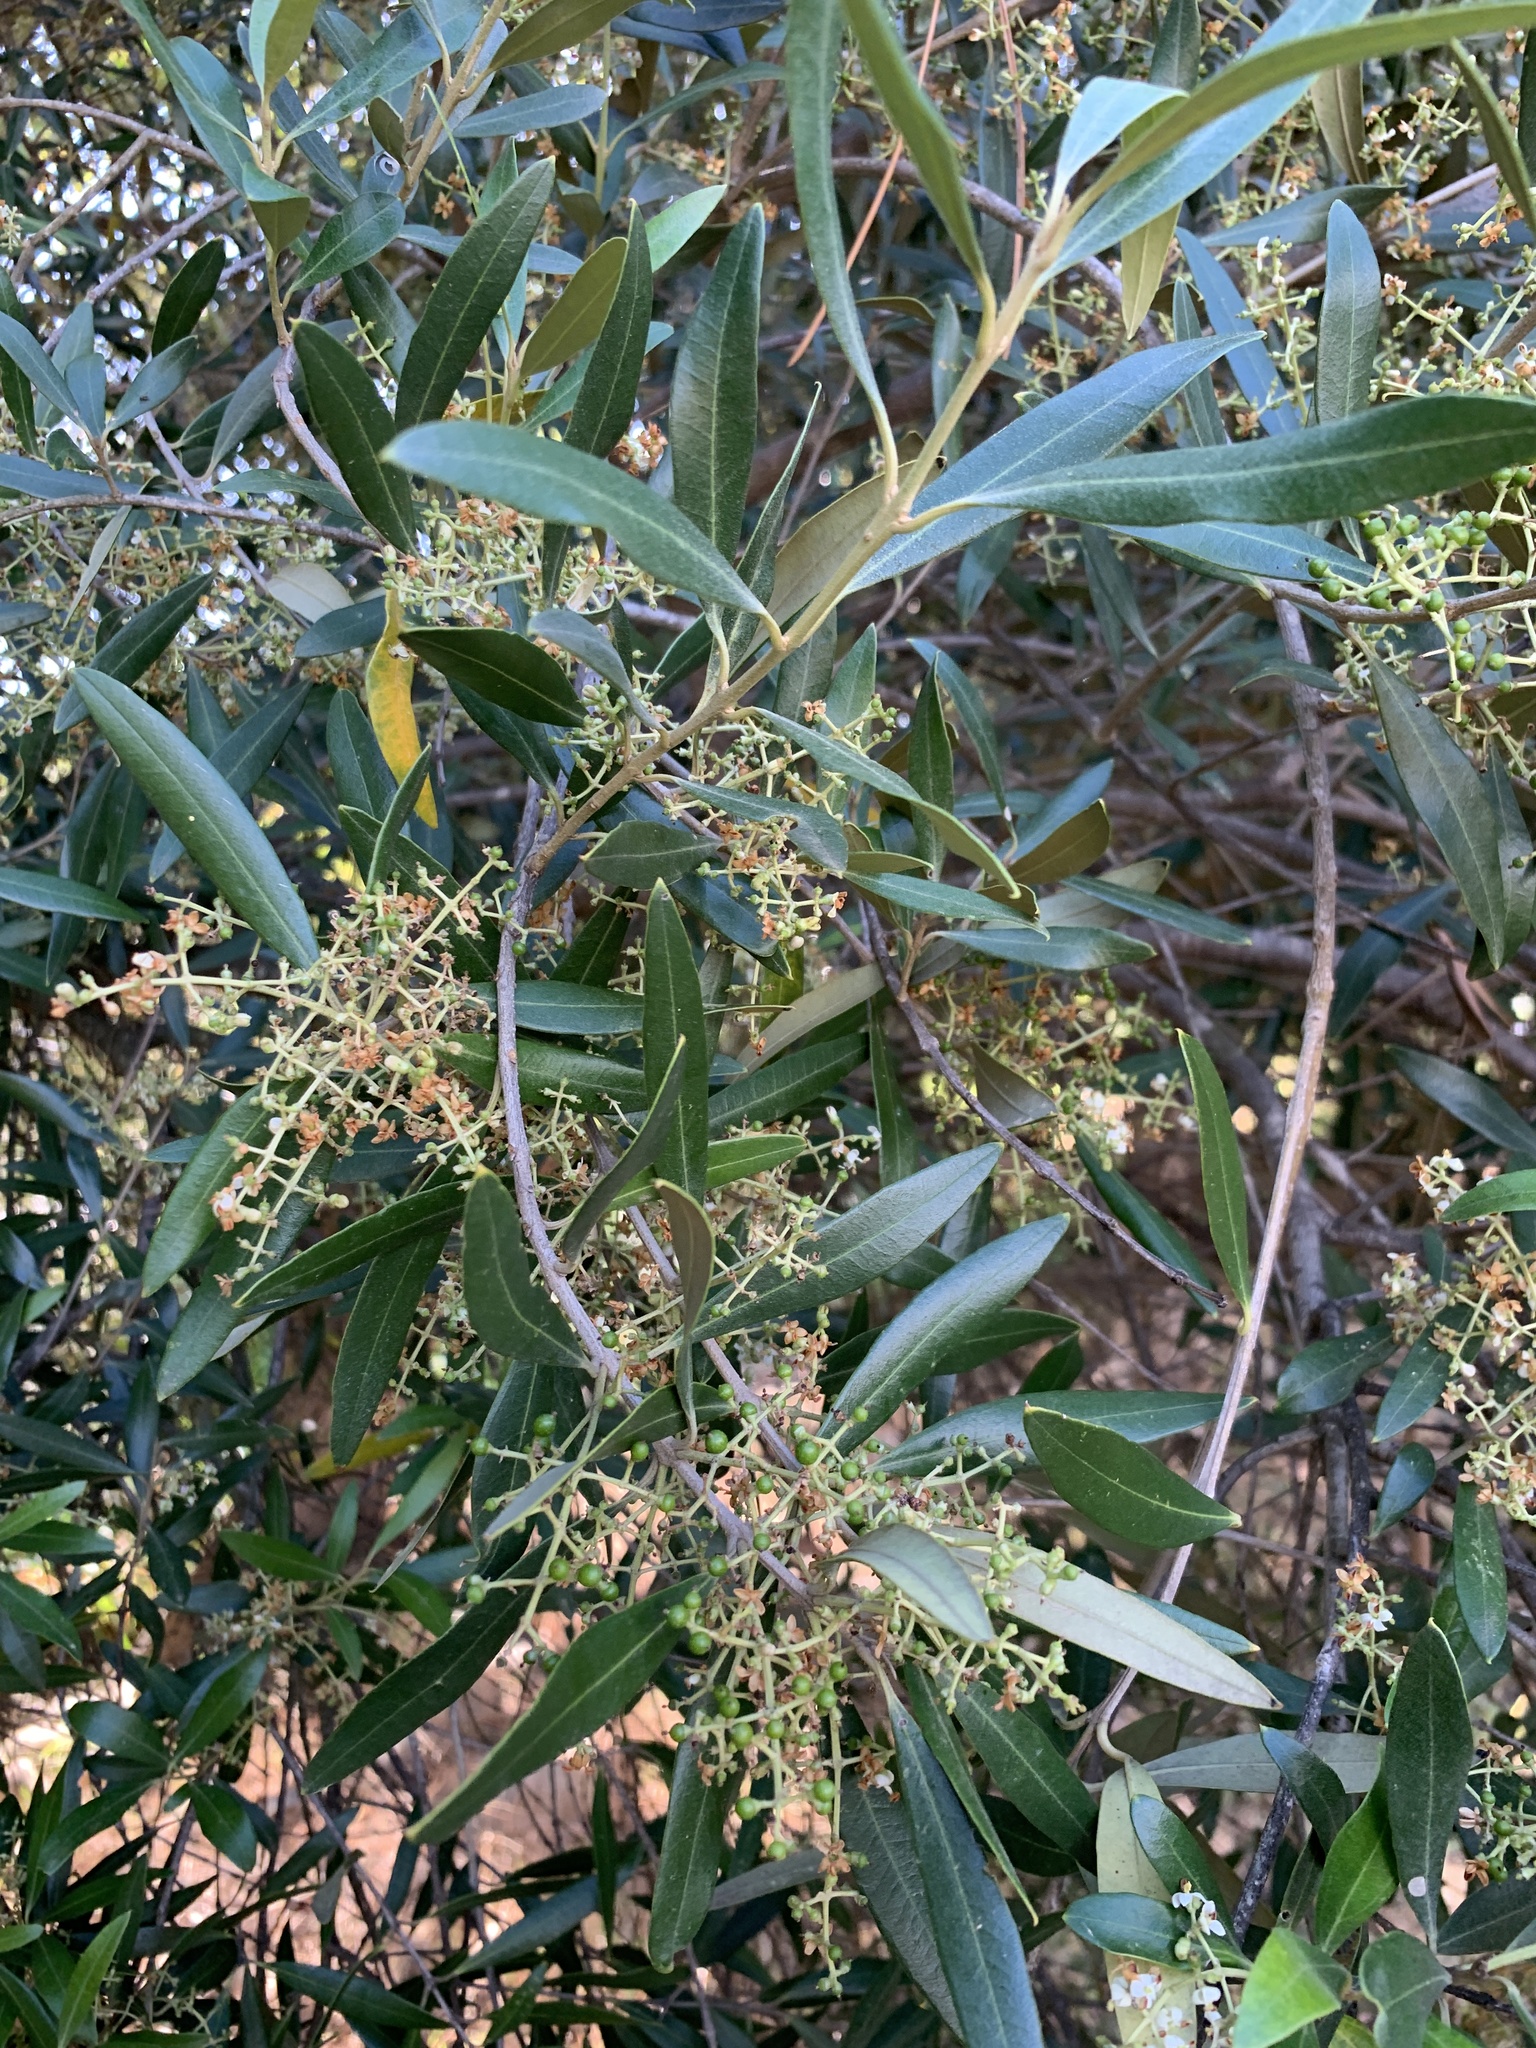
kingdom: Plantae
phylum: Tracheophyta
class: Magnoliopsida
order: Lamiales
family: Oleaceae
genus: Olea
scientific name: Olea europaea
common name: Olive
